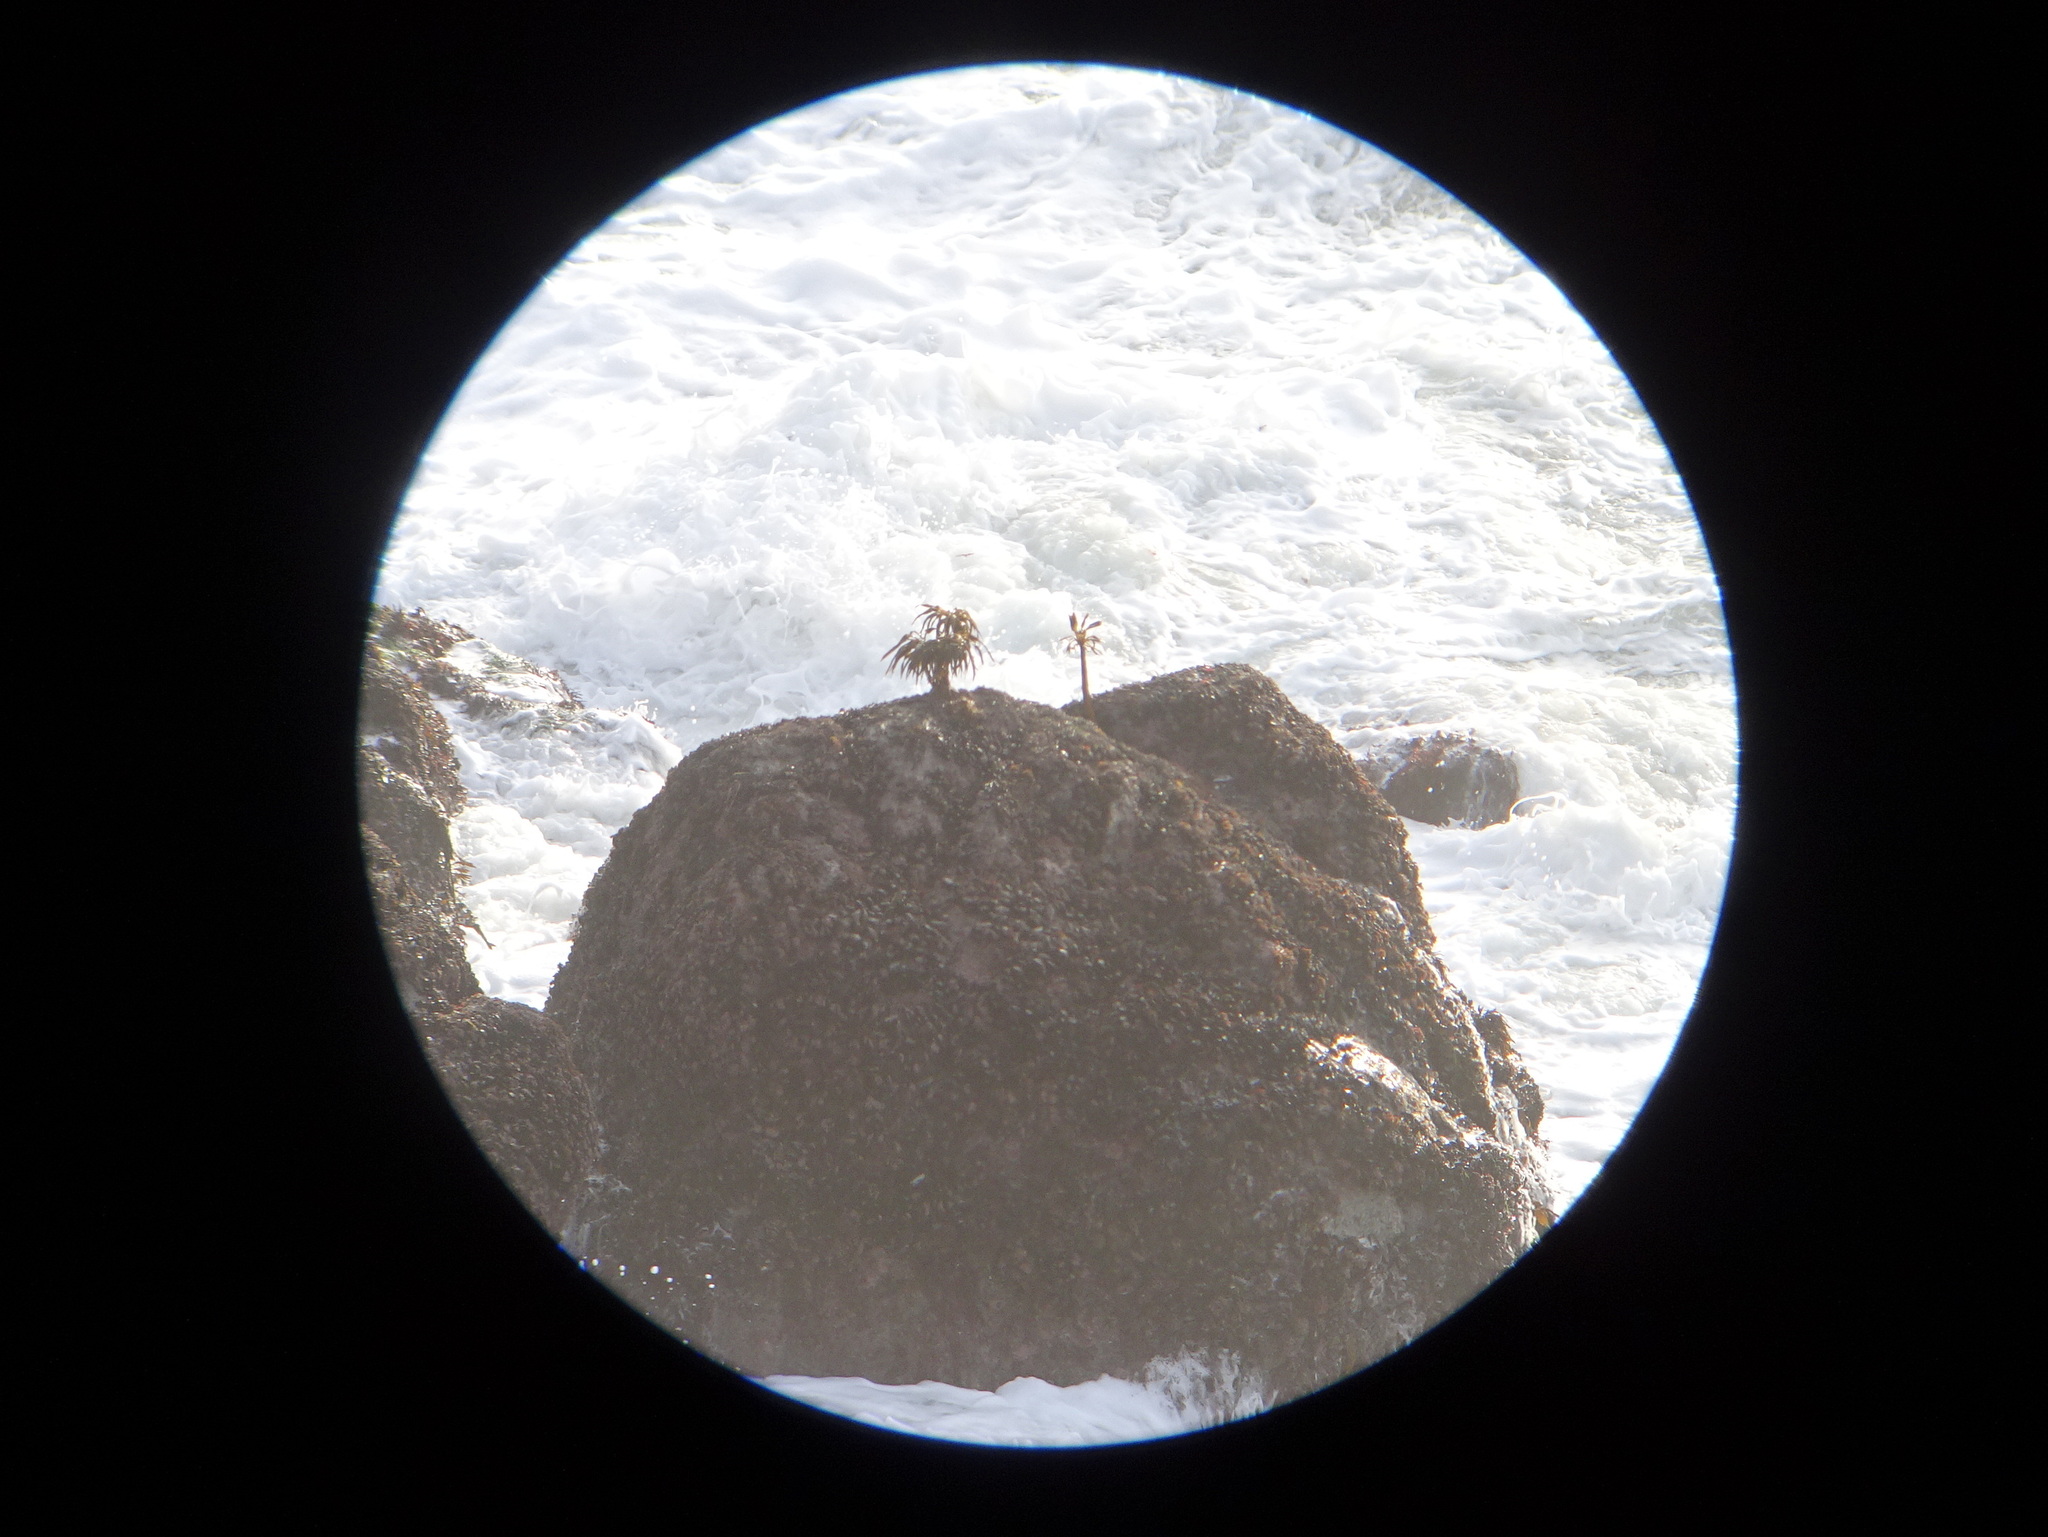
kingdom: Chromista
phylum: Ochrophyta
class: Phaeophyceae
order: Laminariales
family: Laminariaceae
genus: Postelsia
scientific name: Postelsia palmiformis
